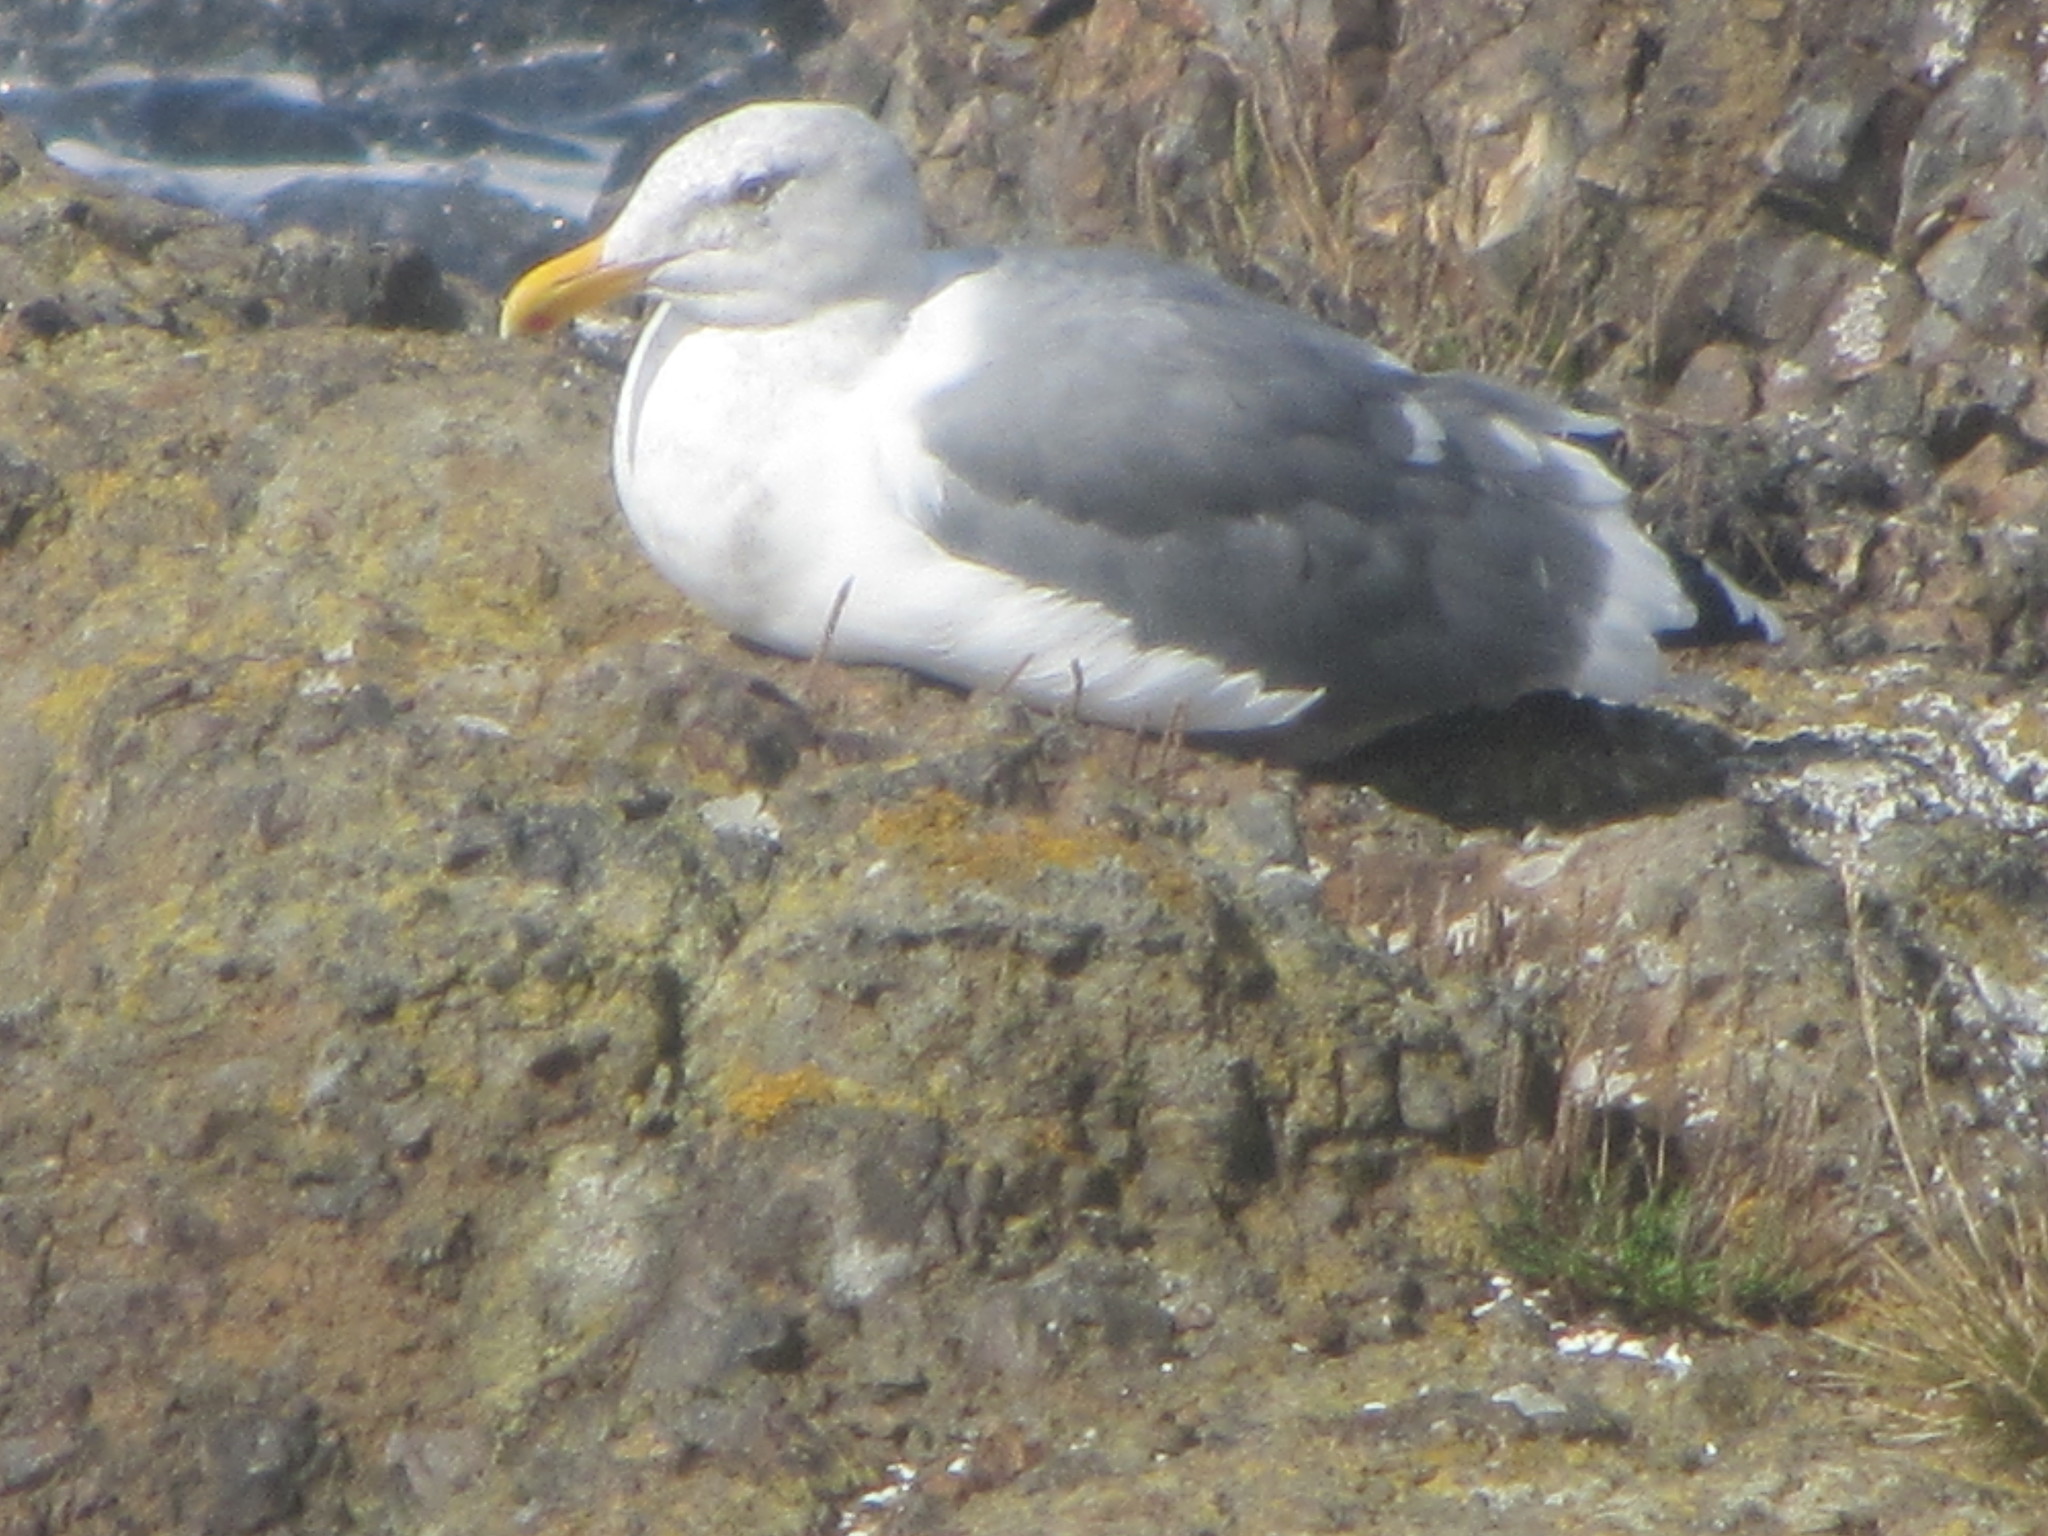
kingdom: Animalia
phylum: Chordata
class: Aves
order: Charadriiformes
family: Laridae
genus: Larus
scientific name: Larus occidentalis
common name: Western gull
